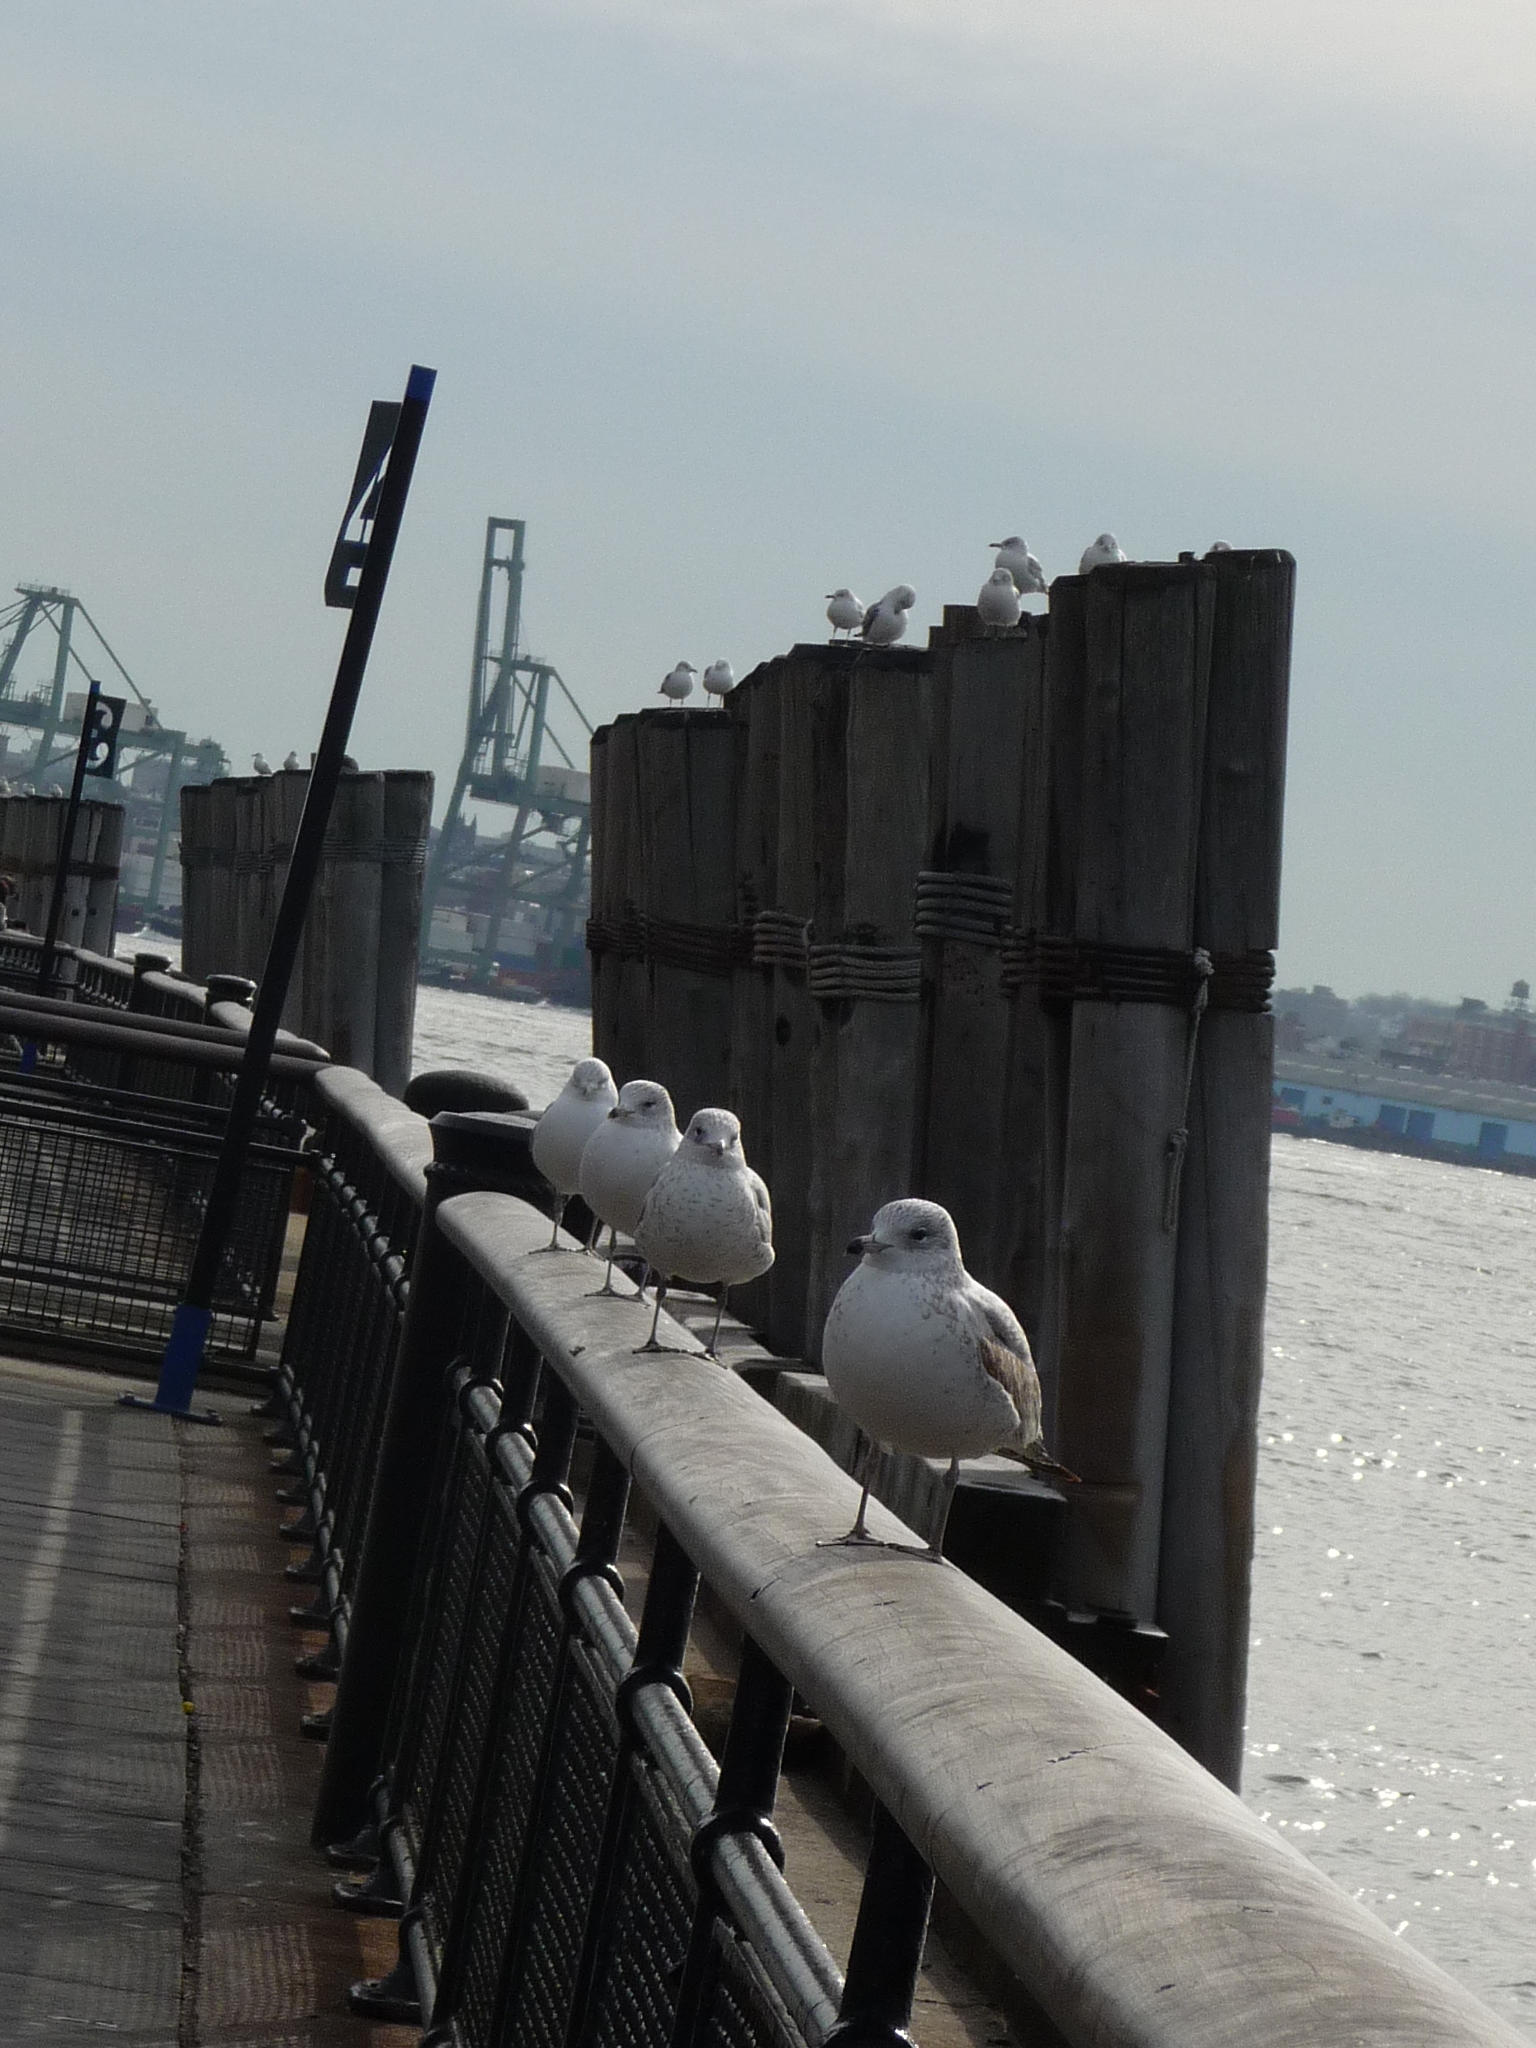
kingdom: Animalia
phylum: Chordata
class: Aves
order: Charadriiformes
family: Laridae
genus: Larus
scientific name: Larus delawarensis
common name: Ring-billed gull
